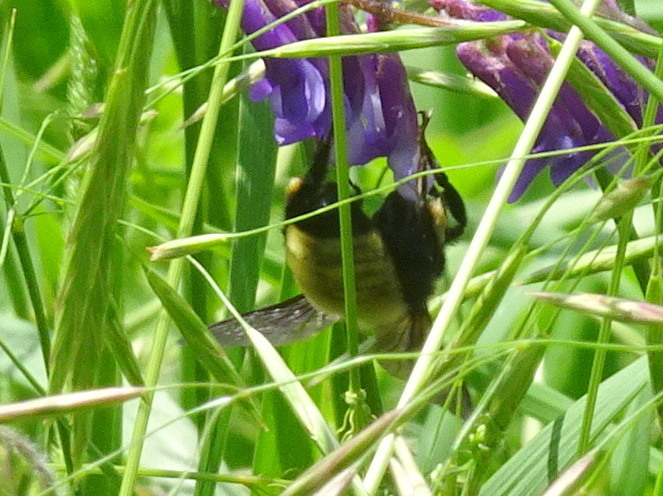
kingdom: Animalia
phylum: Arthropoda
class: Insecta
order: Hymenoptera
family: Apidae
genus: Bombus
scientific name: Bombus fervidus
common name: Yellow bumble bee
